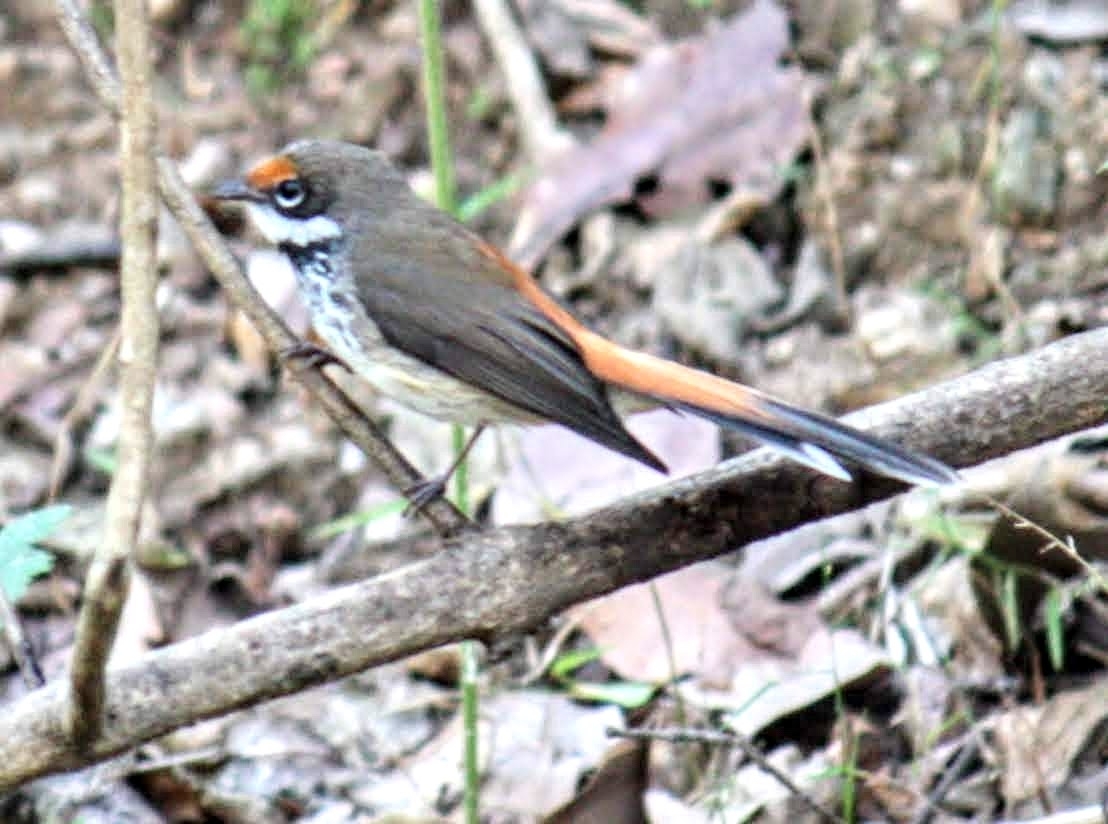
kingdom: Animalia
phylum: Chordata
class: Aves
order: Passeriformes
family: Rhipiduridae
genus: Rhipidura
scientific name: Rhipidura rufifrons
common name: Rufous fantail
